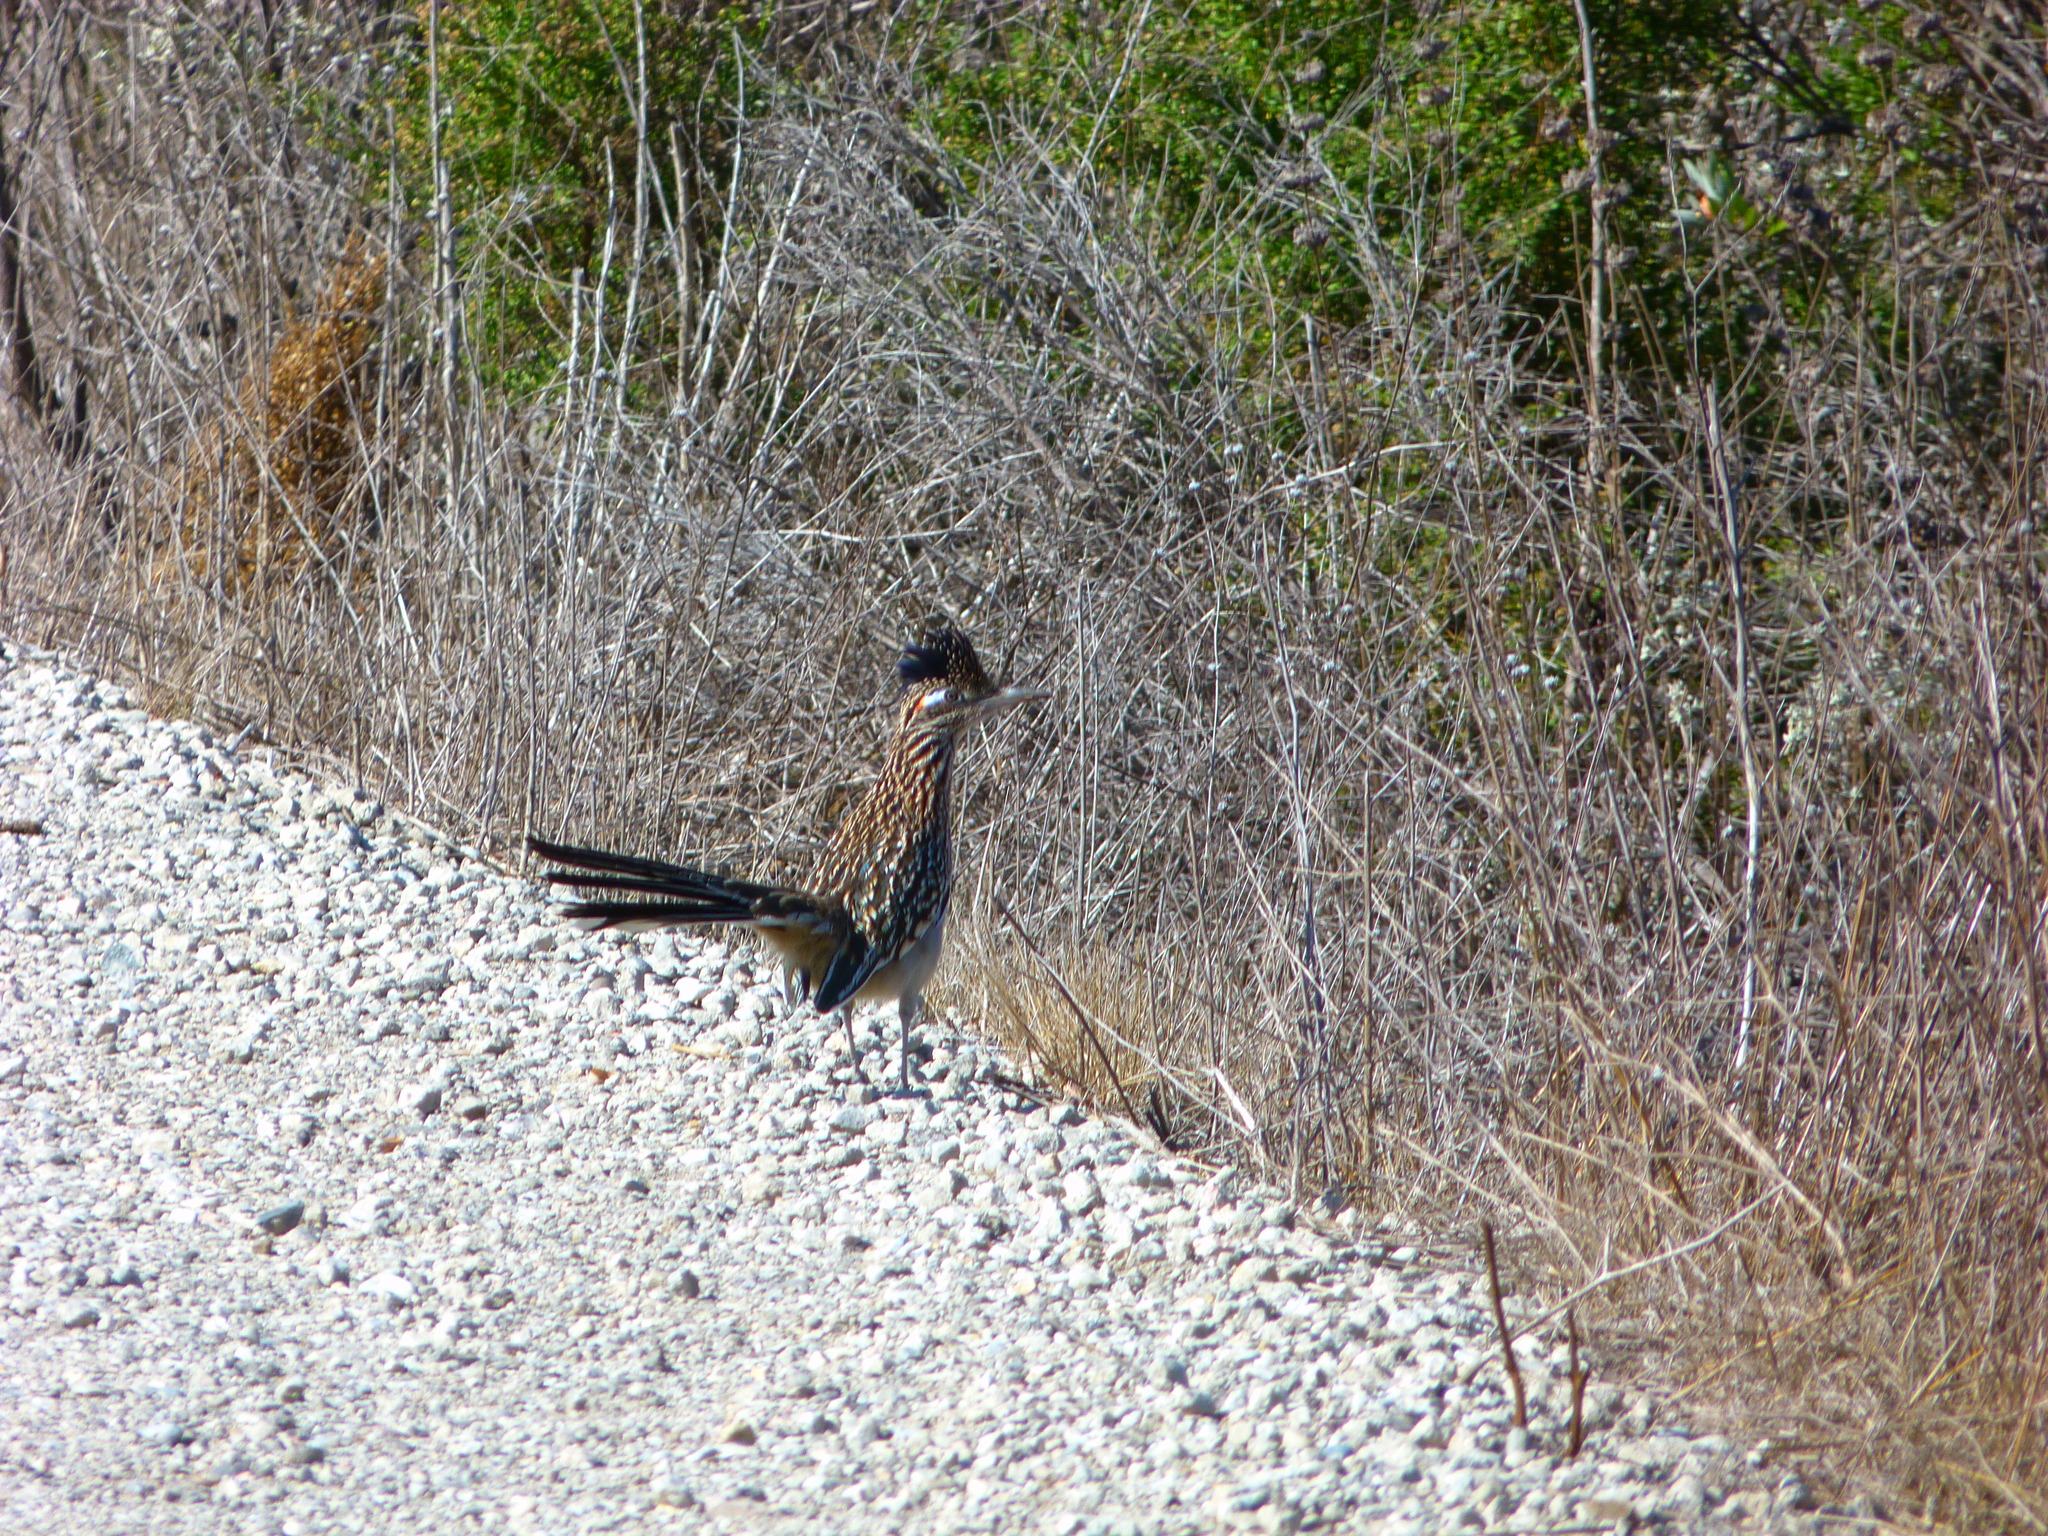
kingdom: Animalia
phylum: Chordata
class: Aves
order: Cuculiformes
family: Cuculidae
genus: Geococcyx
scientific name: Geococcyx californianus
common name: Greater roadrunner
